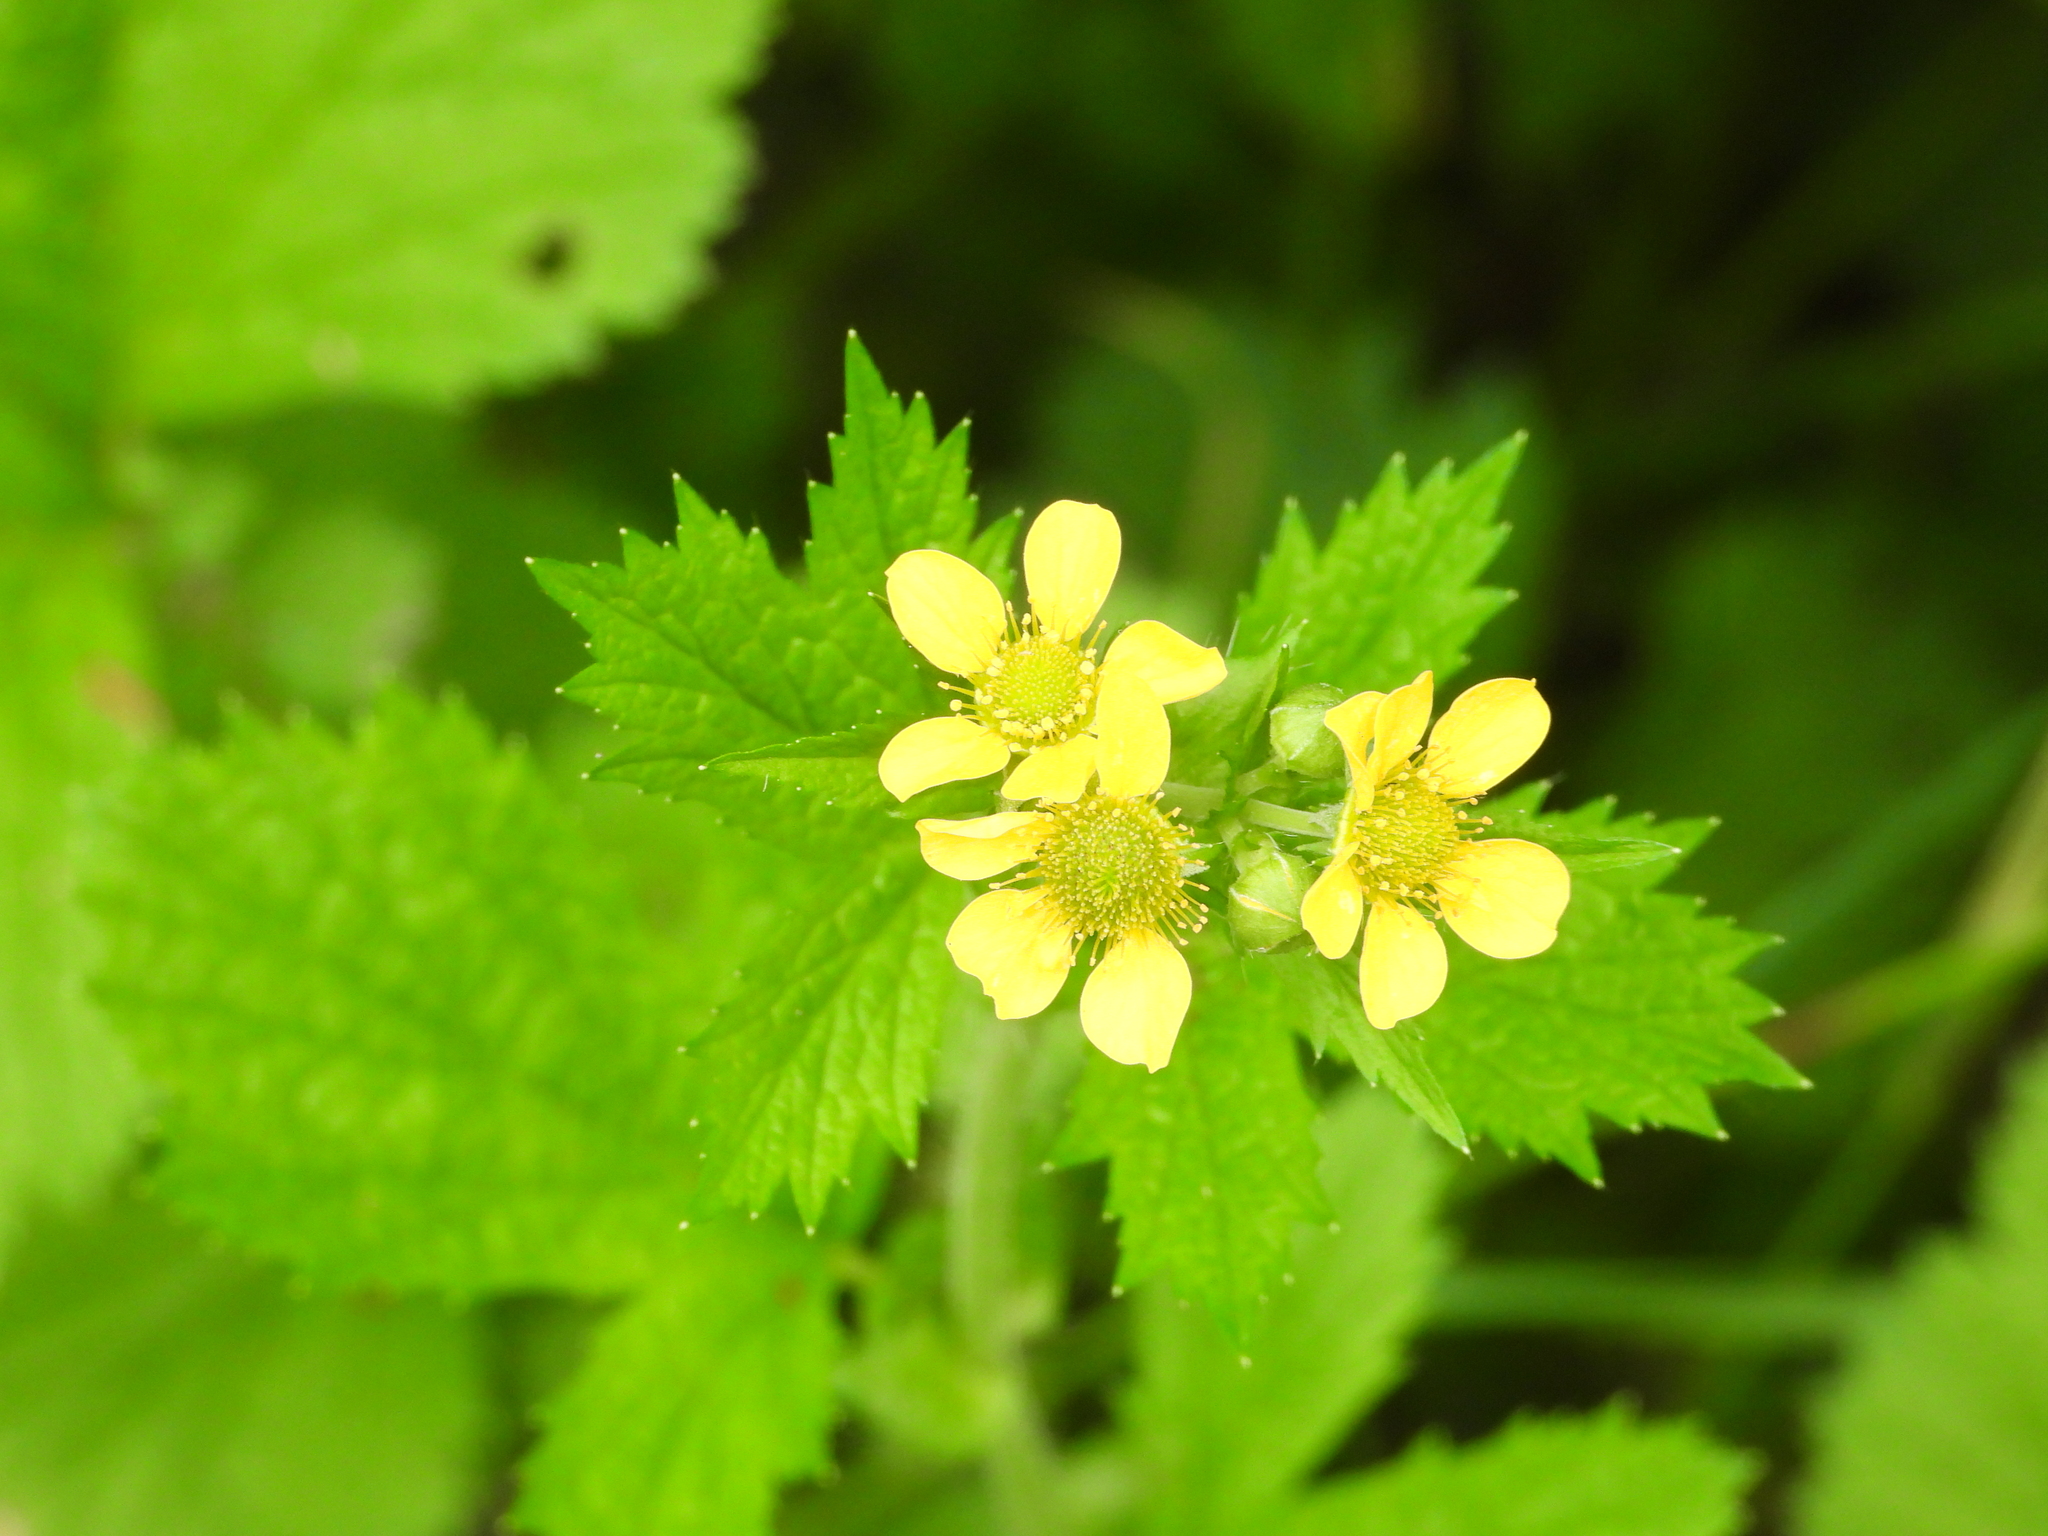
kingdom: Plantae
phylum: Tracheophyta
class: Magnoliopsida
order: Rosales
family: Rosaceae
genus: Geum
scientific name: Geum macrophyllum
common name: Large-leaved avens
